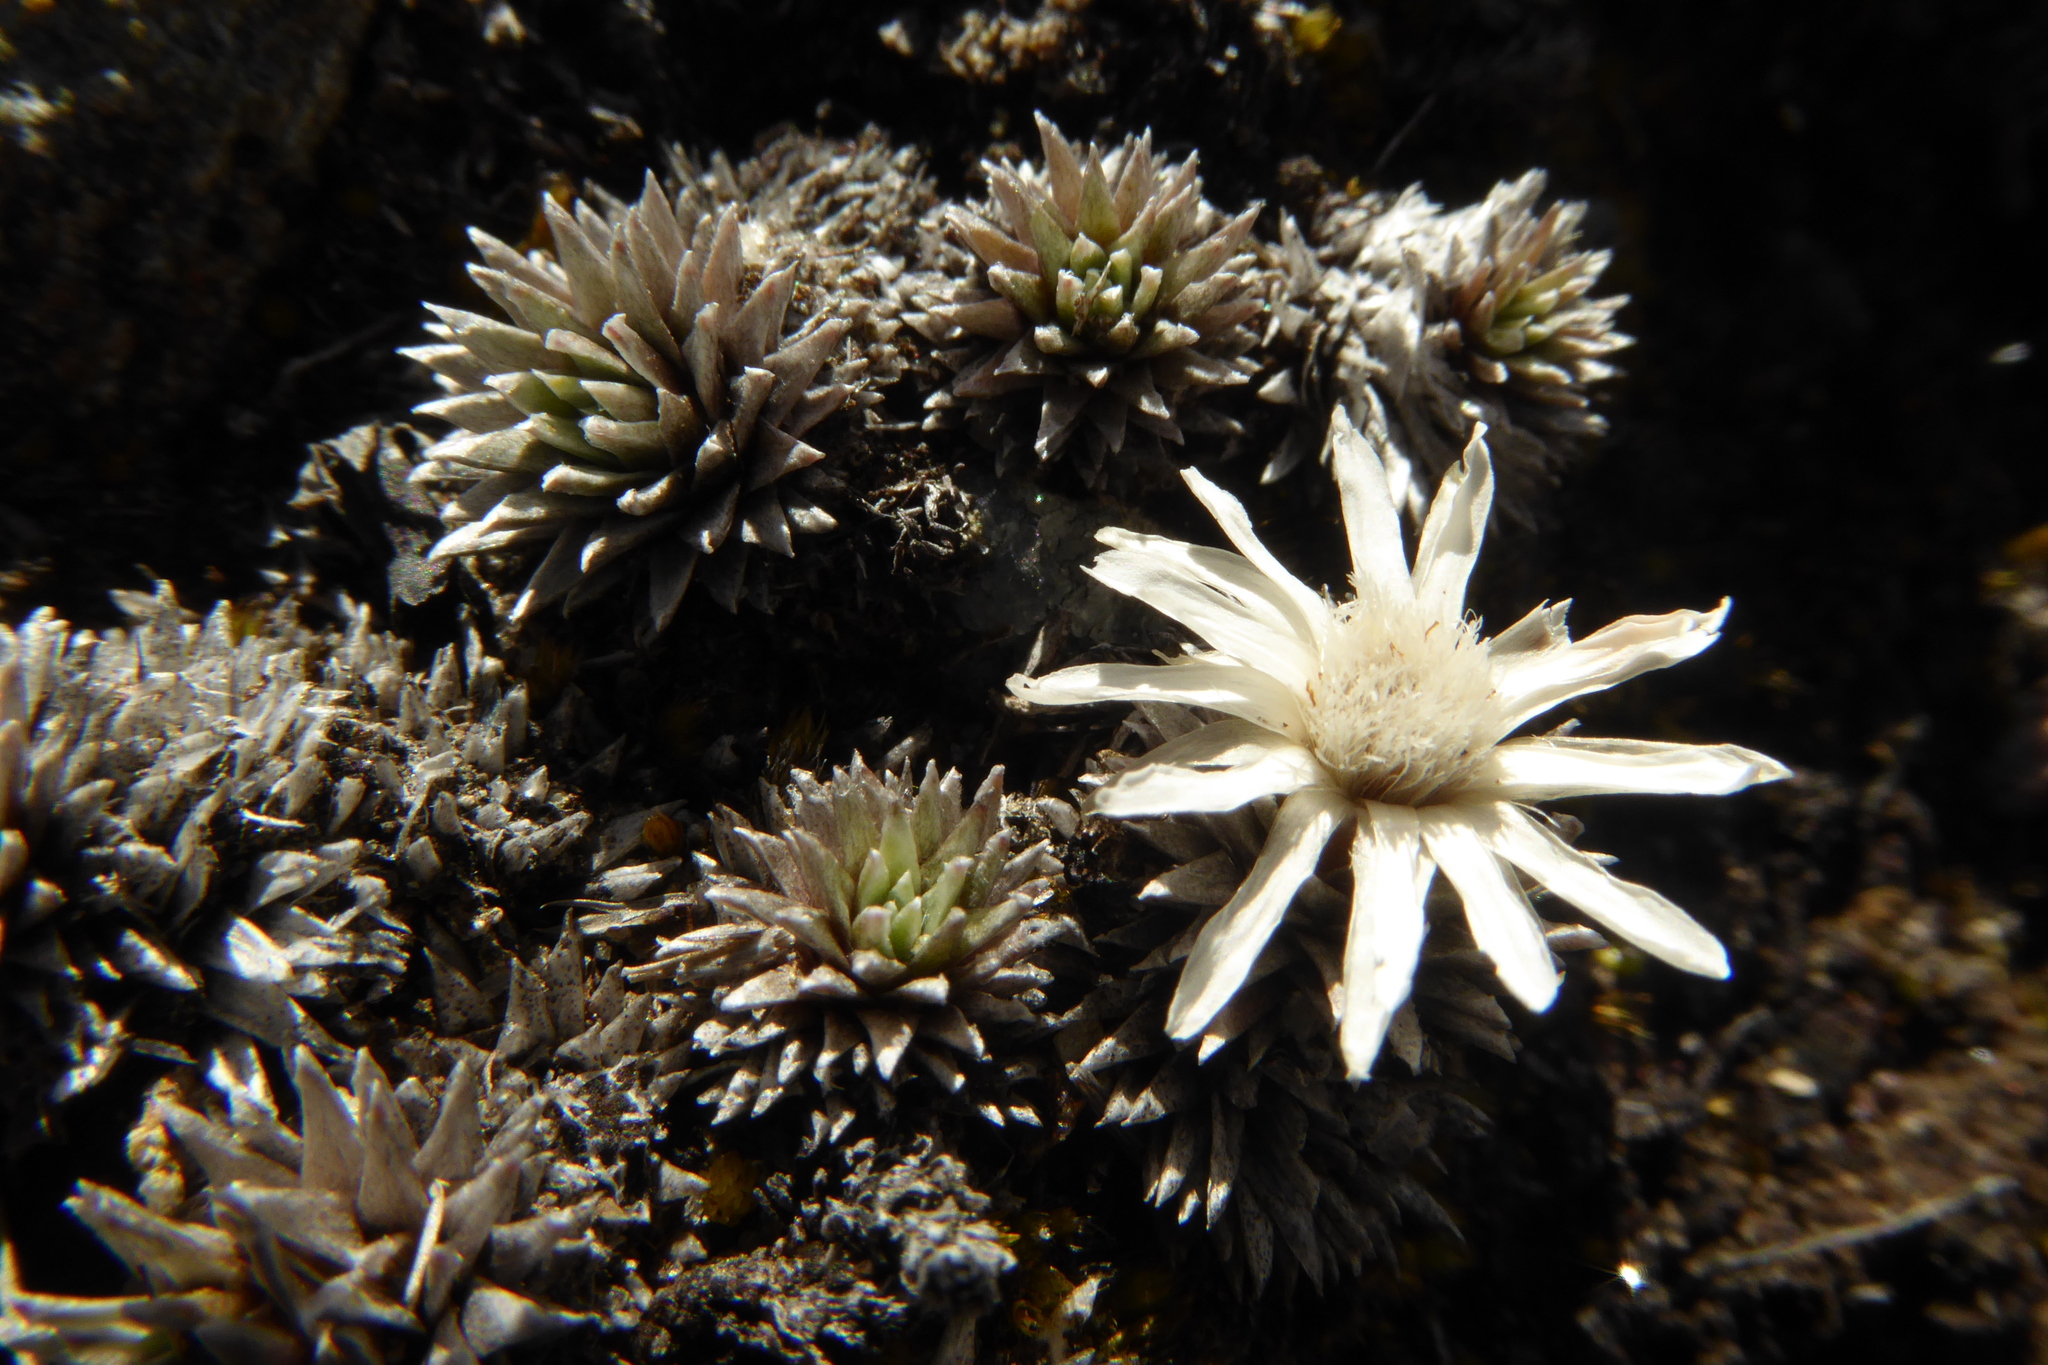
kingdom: Plantae
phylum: Tracheophyta
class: Magnoliopsida
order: Asterales
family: Asteraceae
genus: Raoulia
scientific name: Raoulia grandiflora
